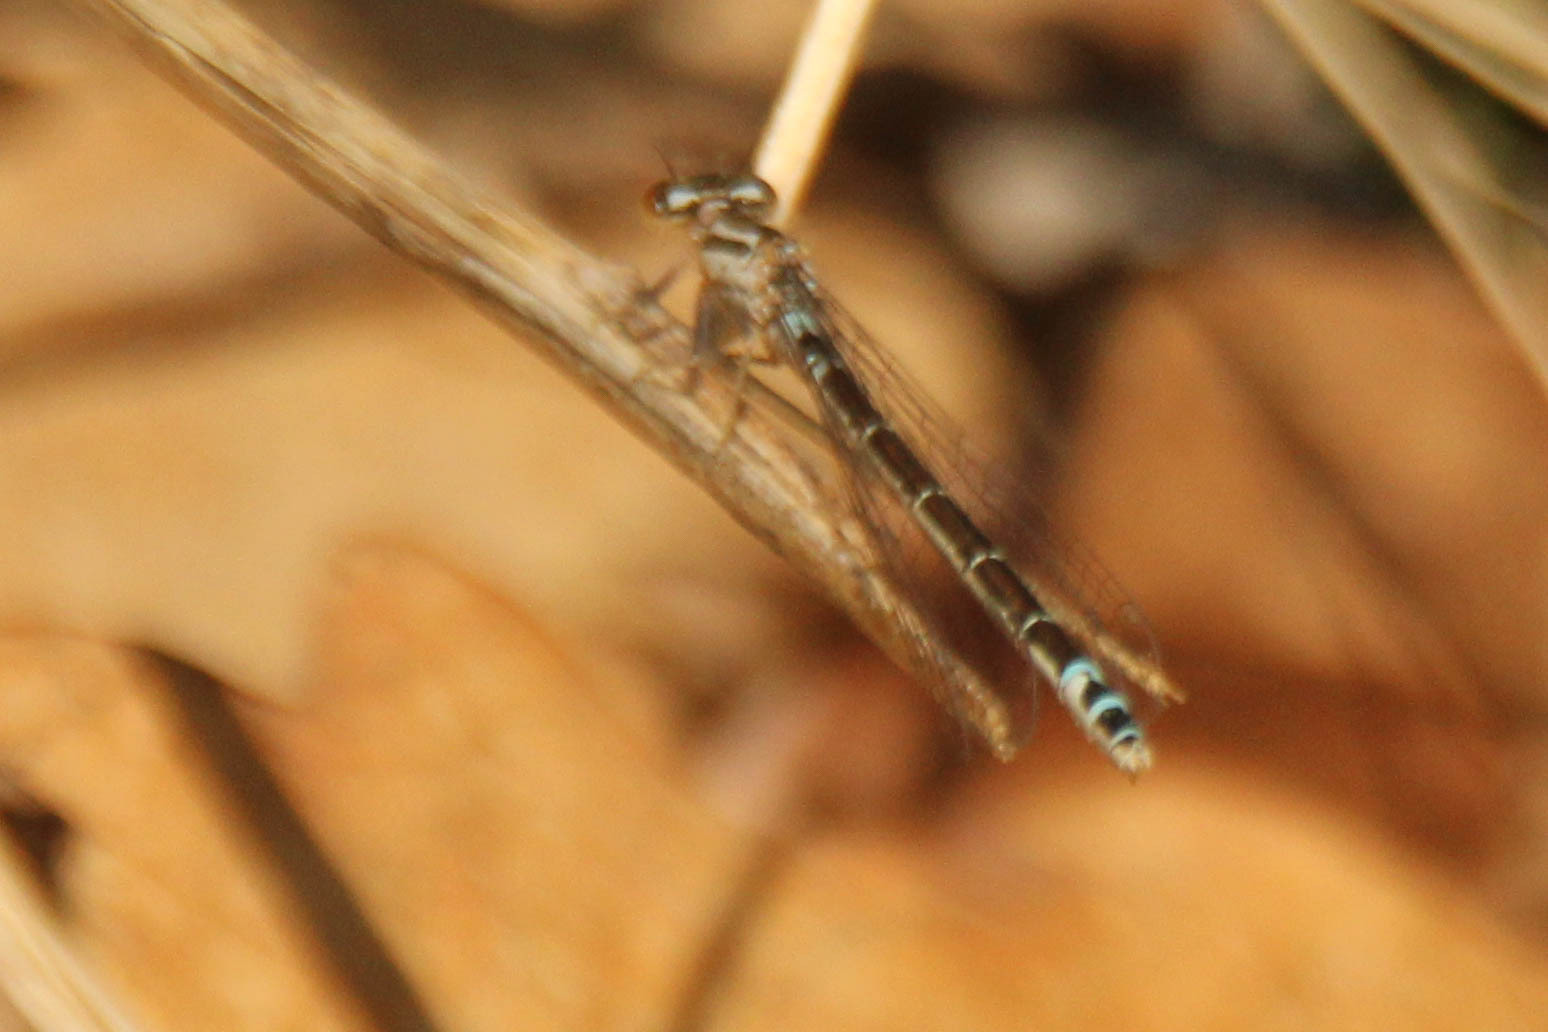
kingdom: Animalia
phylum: Arthropoda
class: Insecta
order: Odonata
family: Coenagrionidae
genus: Coenagrion
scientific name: Coenagrion glaciale
